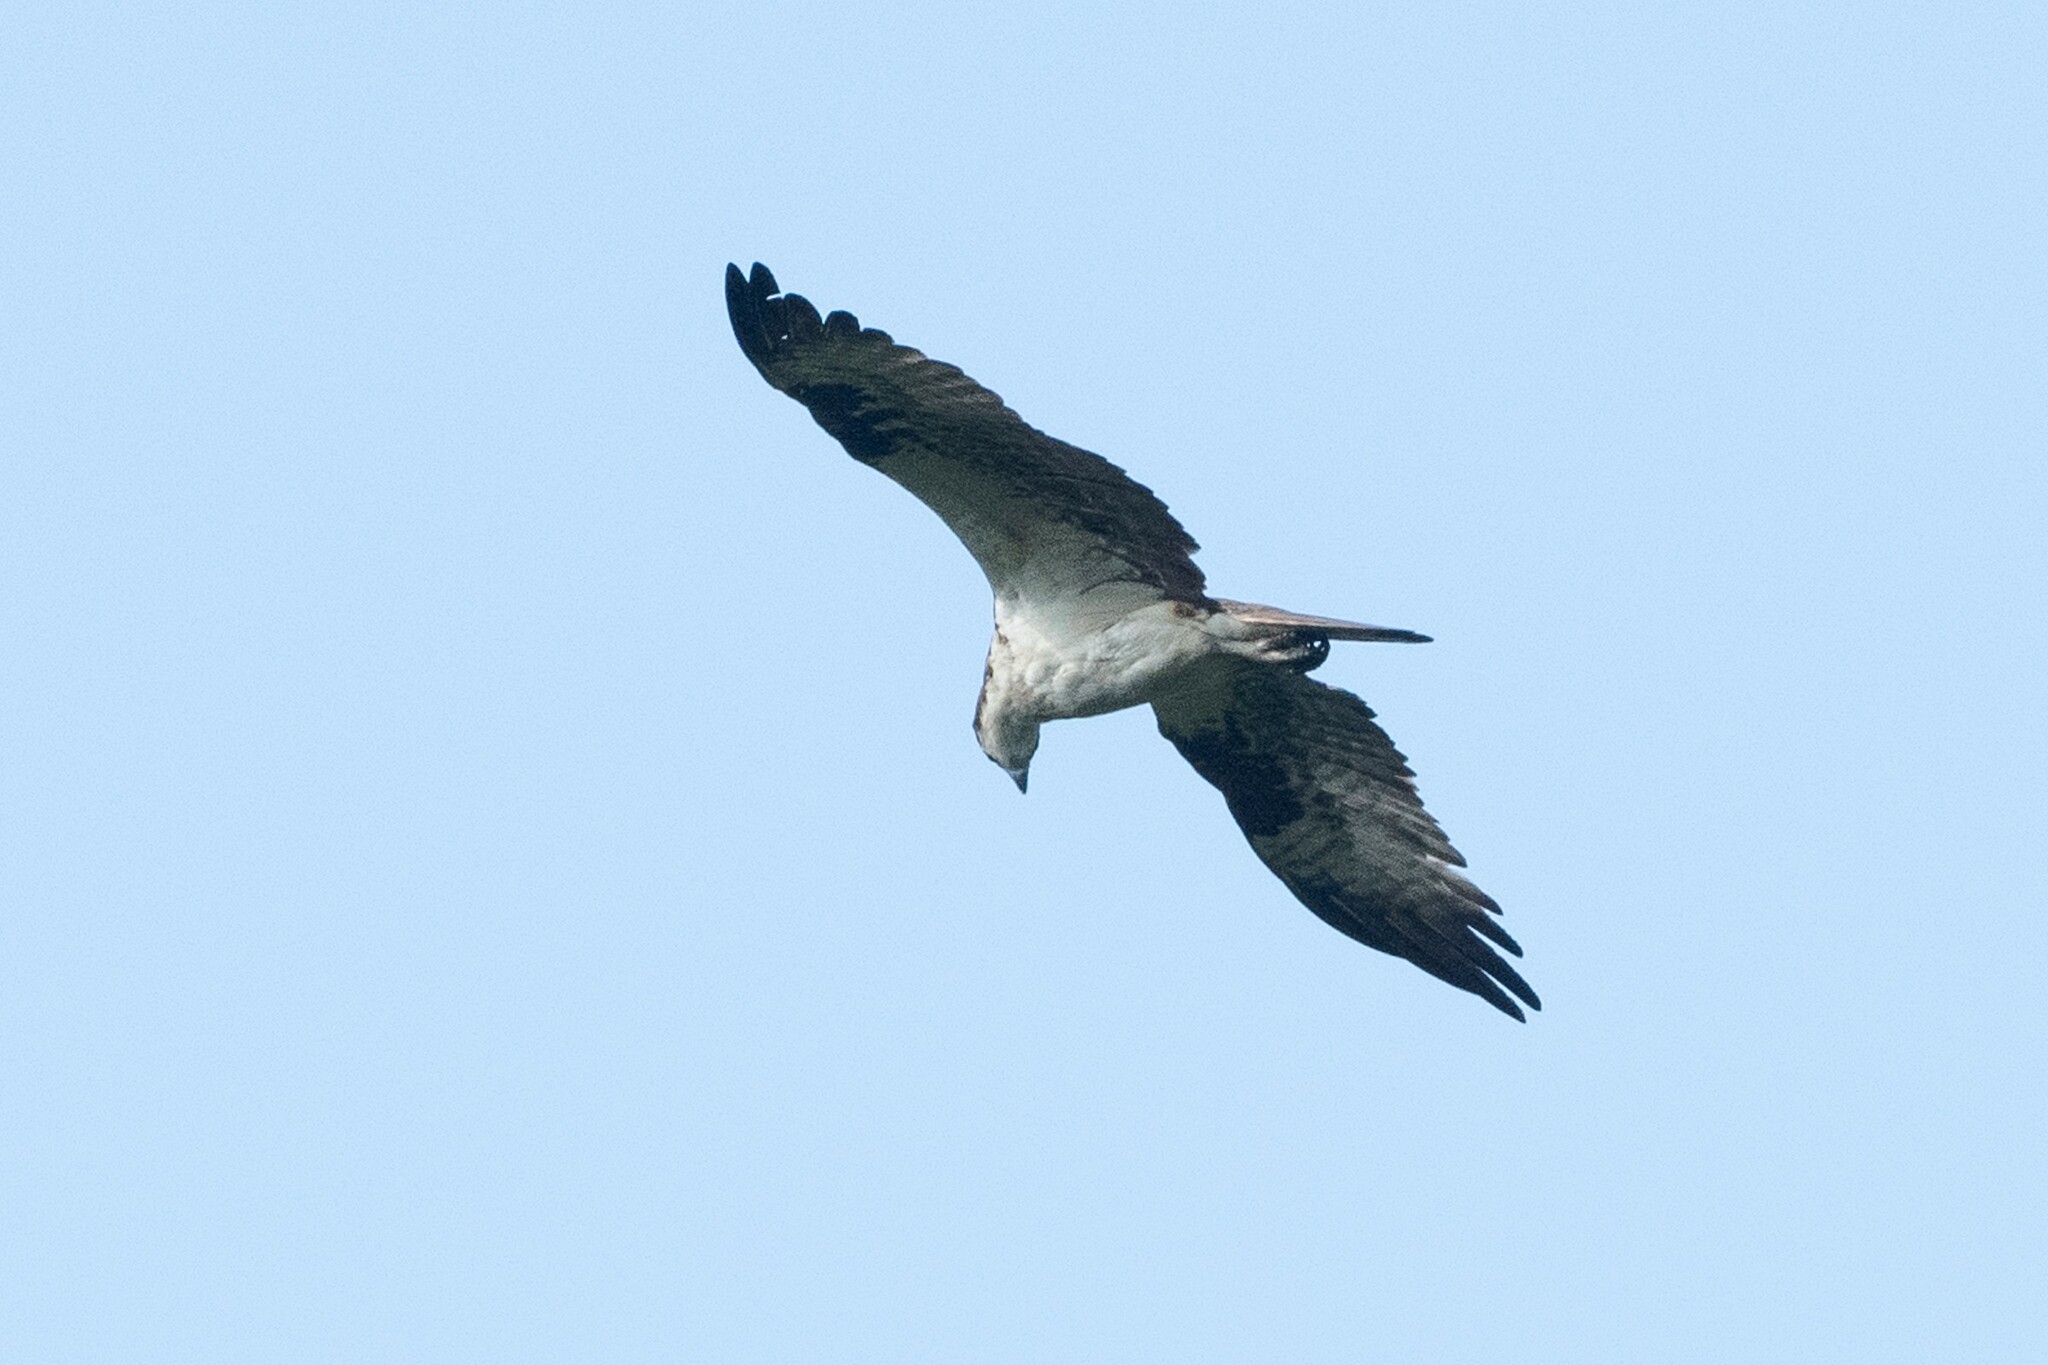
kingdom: Animalia
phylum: Chordata
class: Aves
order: Accipitriformes
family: Pandionidae
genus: Pandion
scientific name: Pandion haliaetus
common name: Osprey
